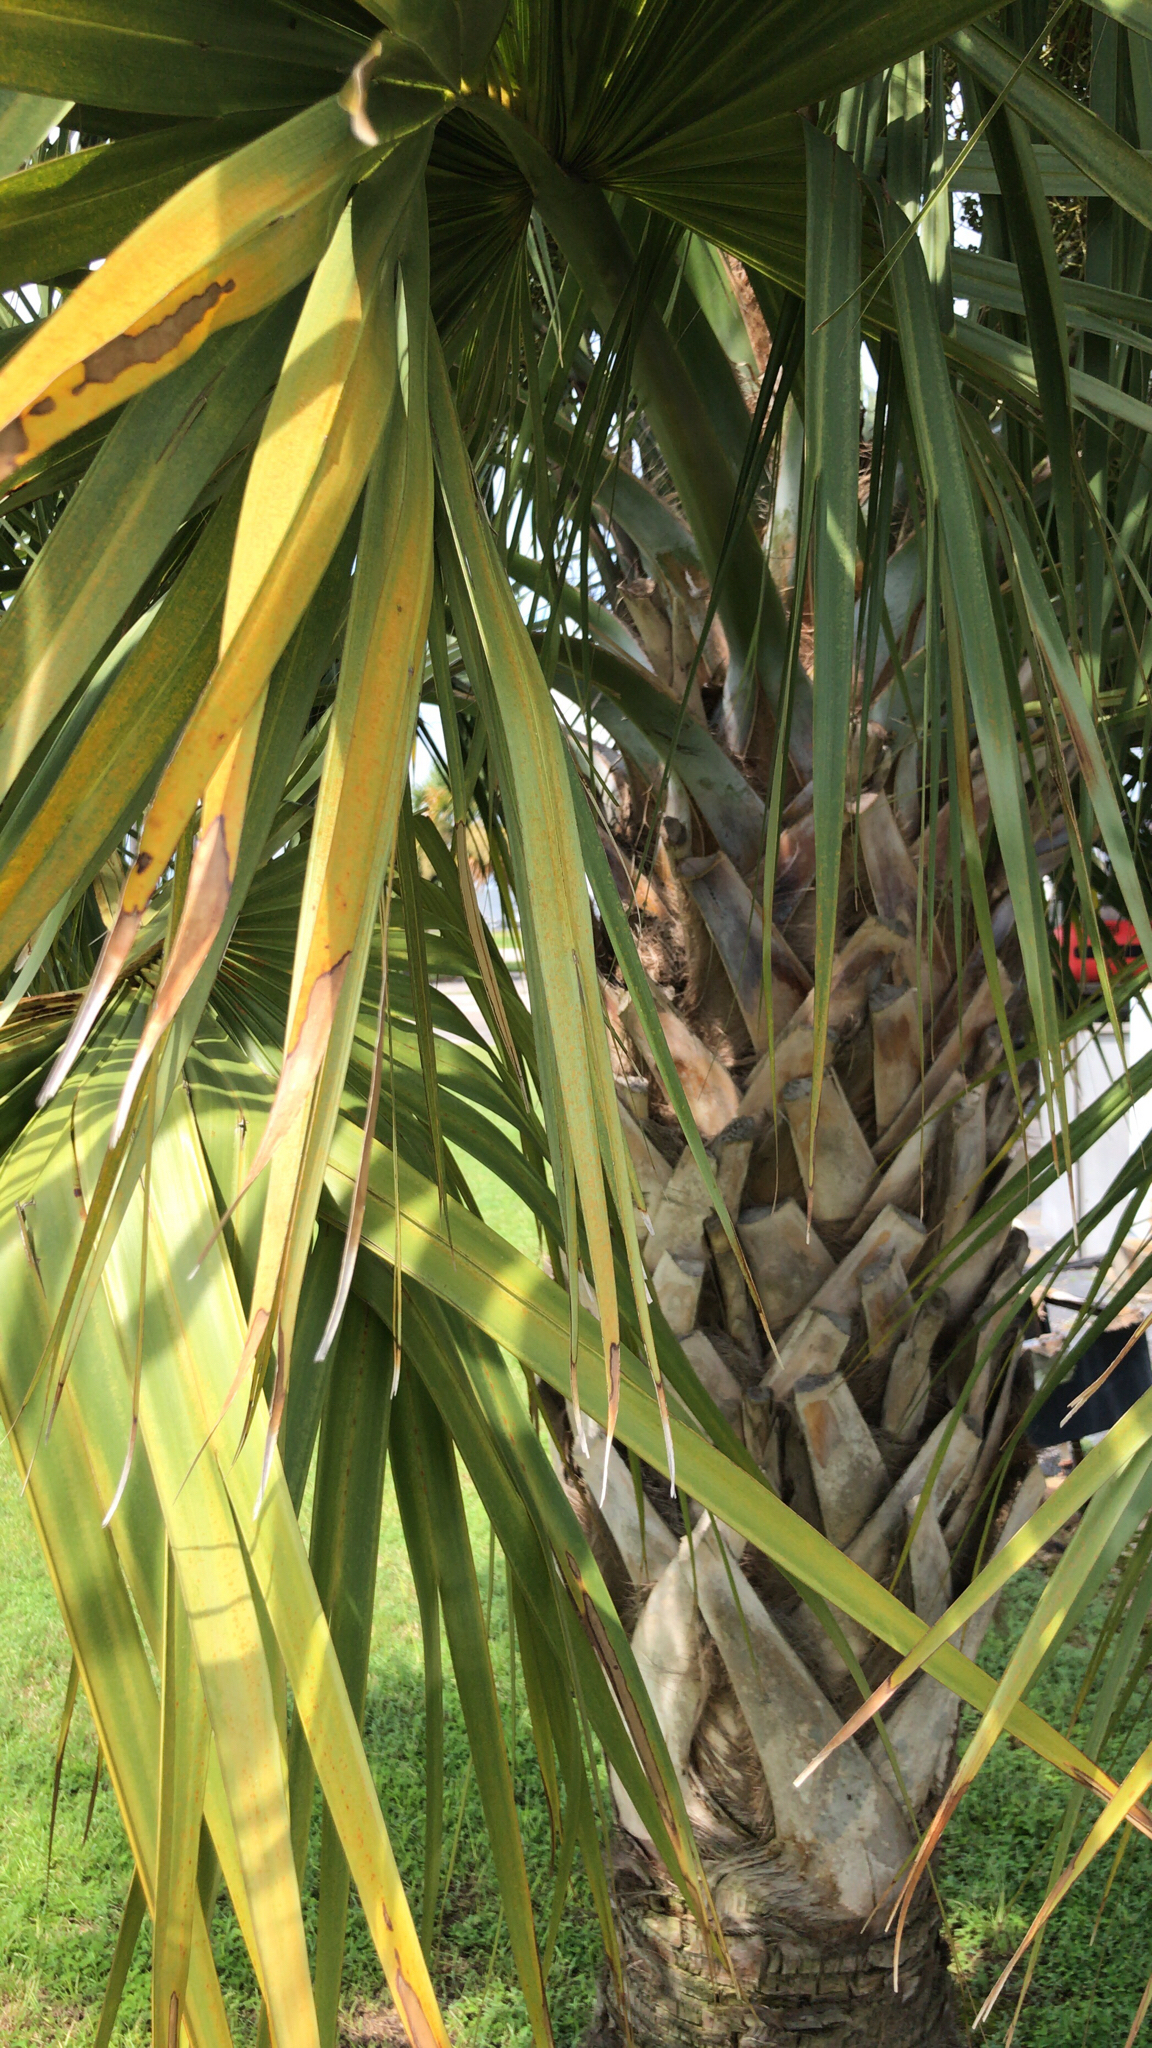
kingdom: Plantae
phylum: Tracheophyta
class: Liliopsida
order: Arecales
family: Arecaceae
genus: Sabal
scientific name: Sabal palmetto
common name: Blue palmetto
